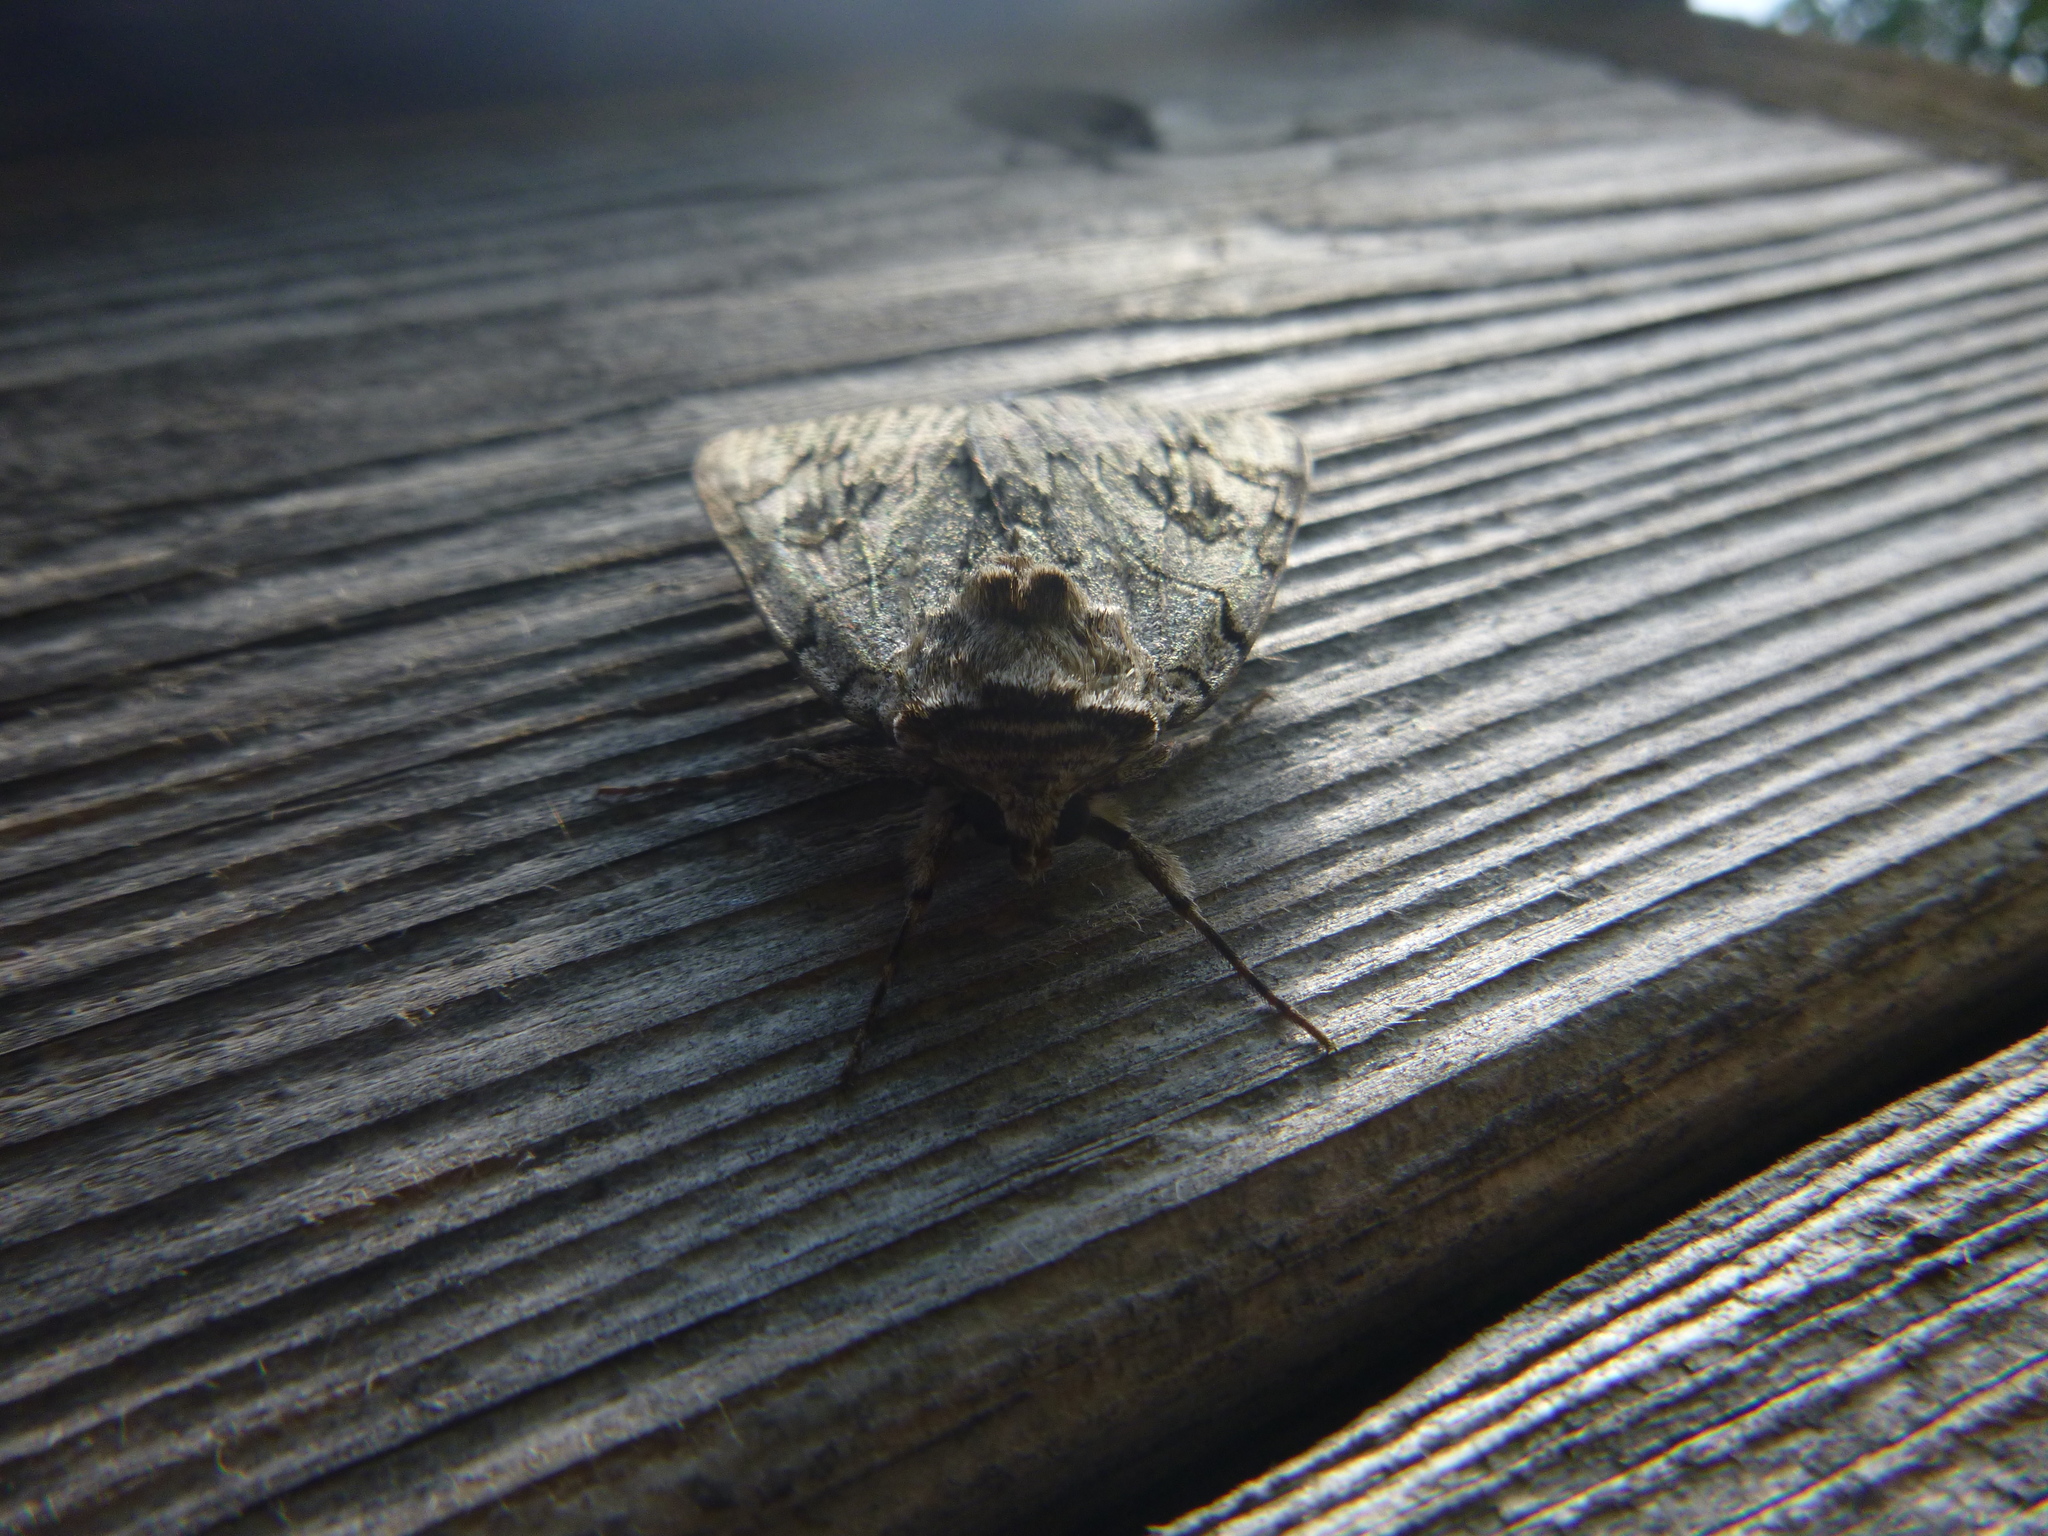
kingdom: Animalia
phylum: Arthropoda
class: Insecta
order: Lepidoptera
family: Erebidae
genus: Catocala
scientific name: Catocala electa
